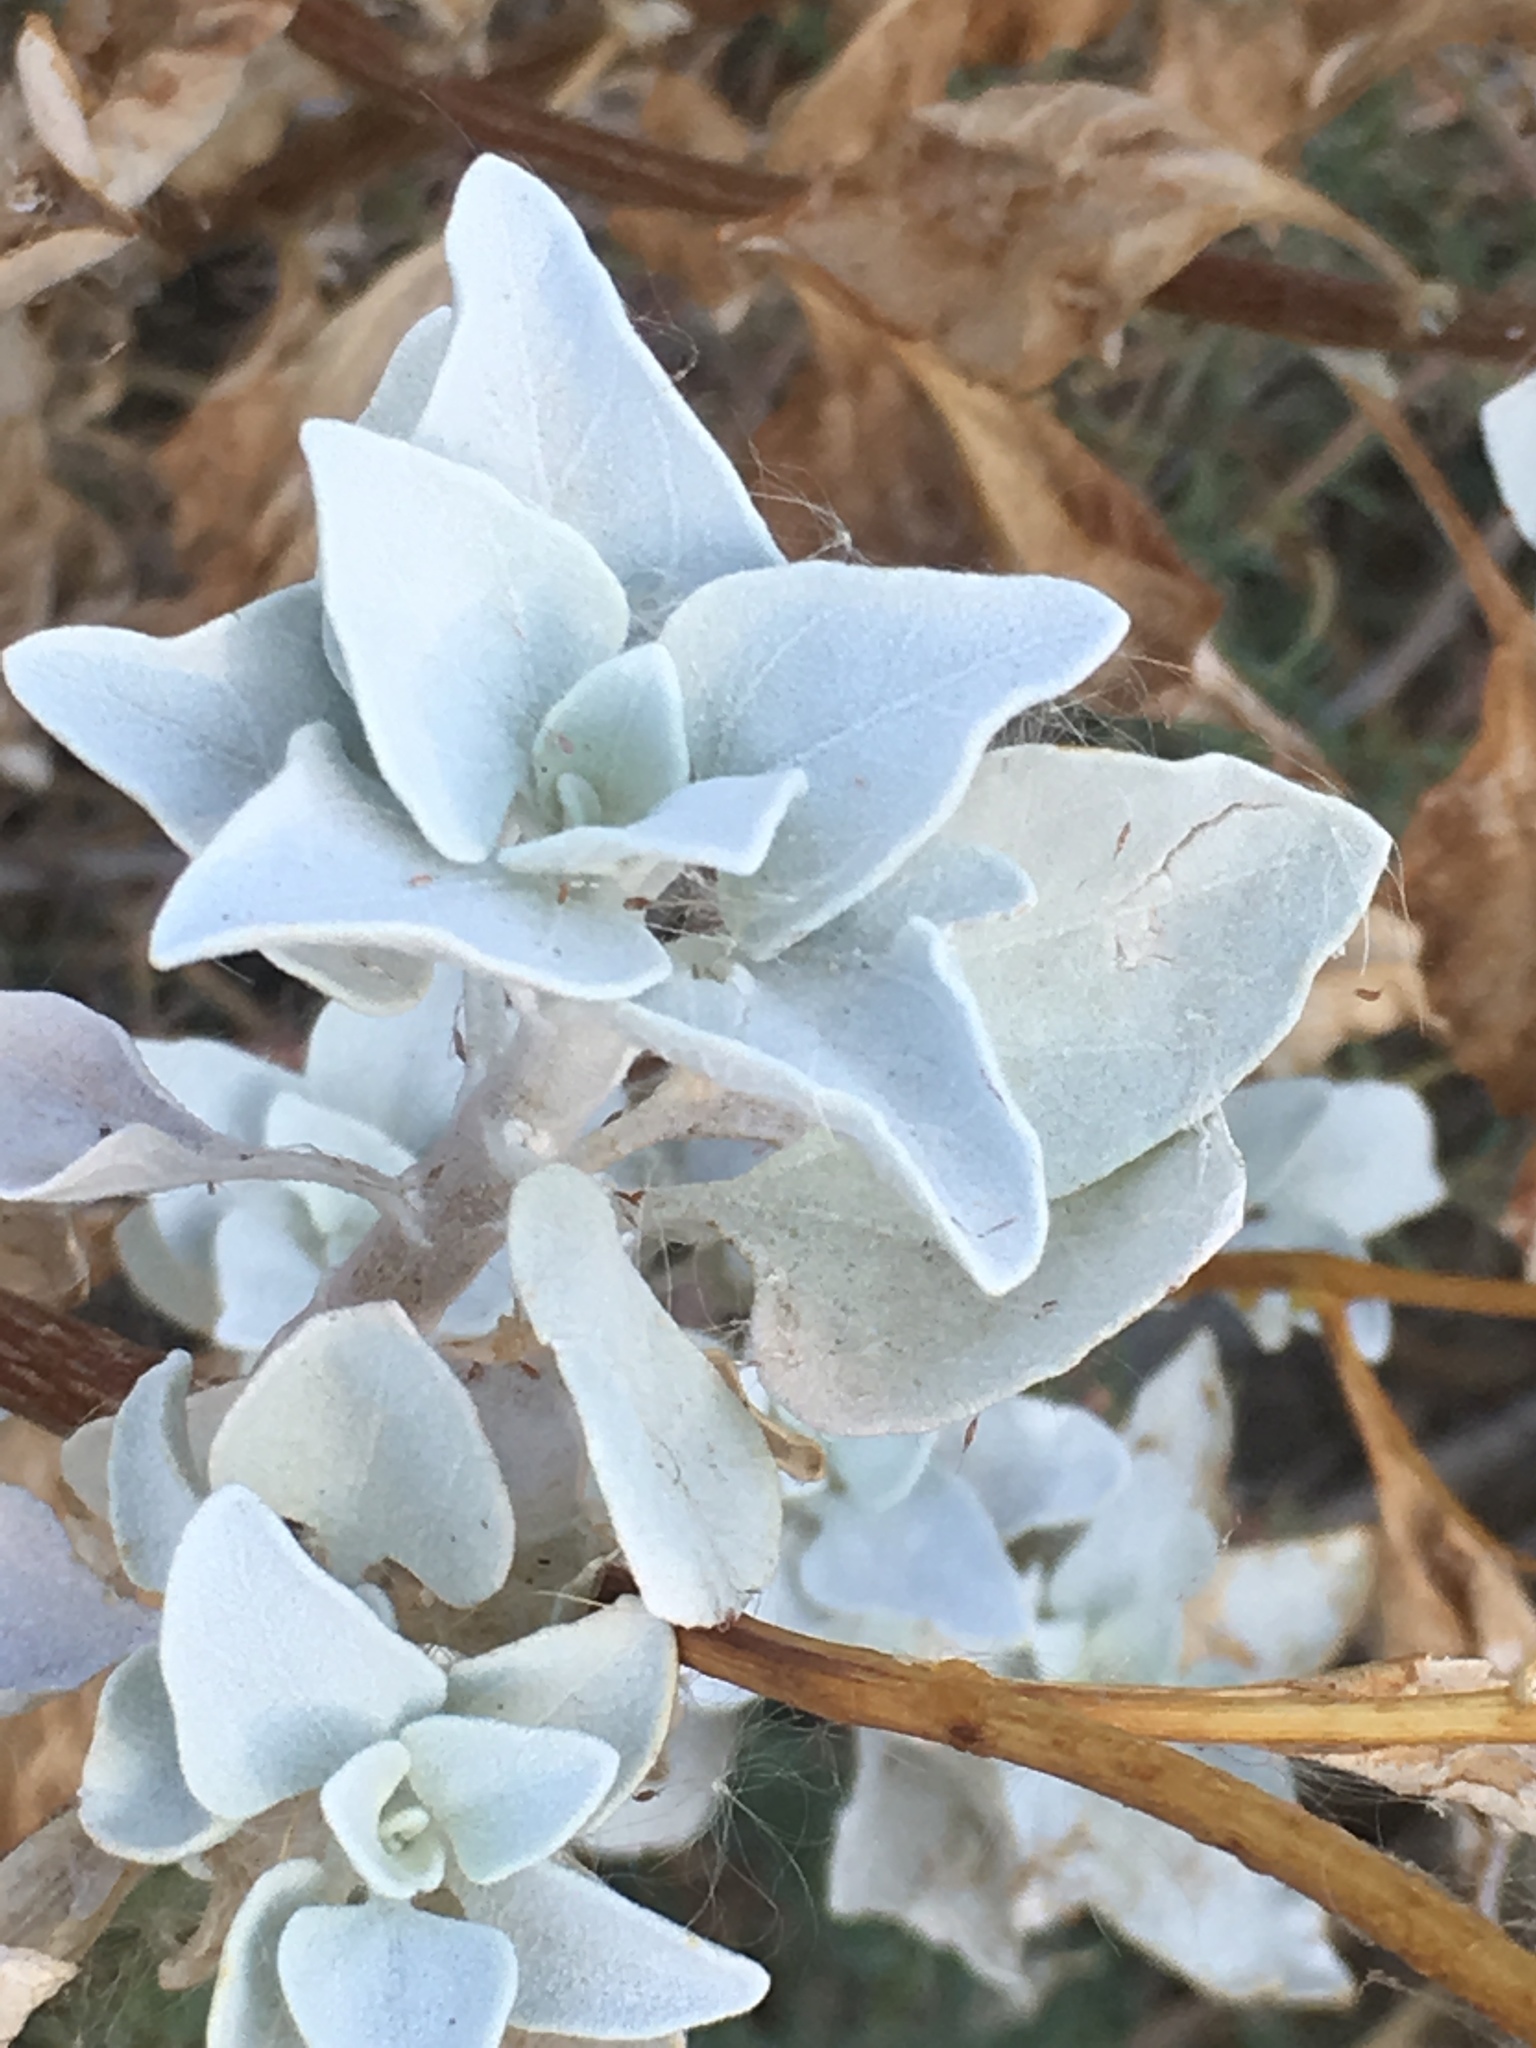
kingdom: Plantae
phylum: Tracheophyta
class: Magnoliopsida
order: Asterales
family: Asteraceae
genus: Encelia
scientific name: Encelia farinosa
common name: Brittlebush
